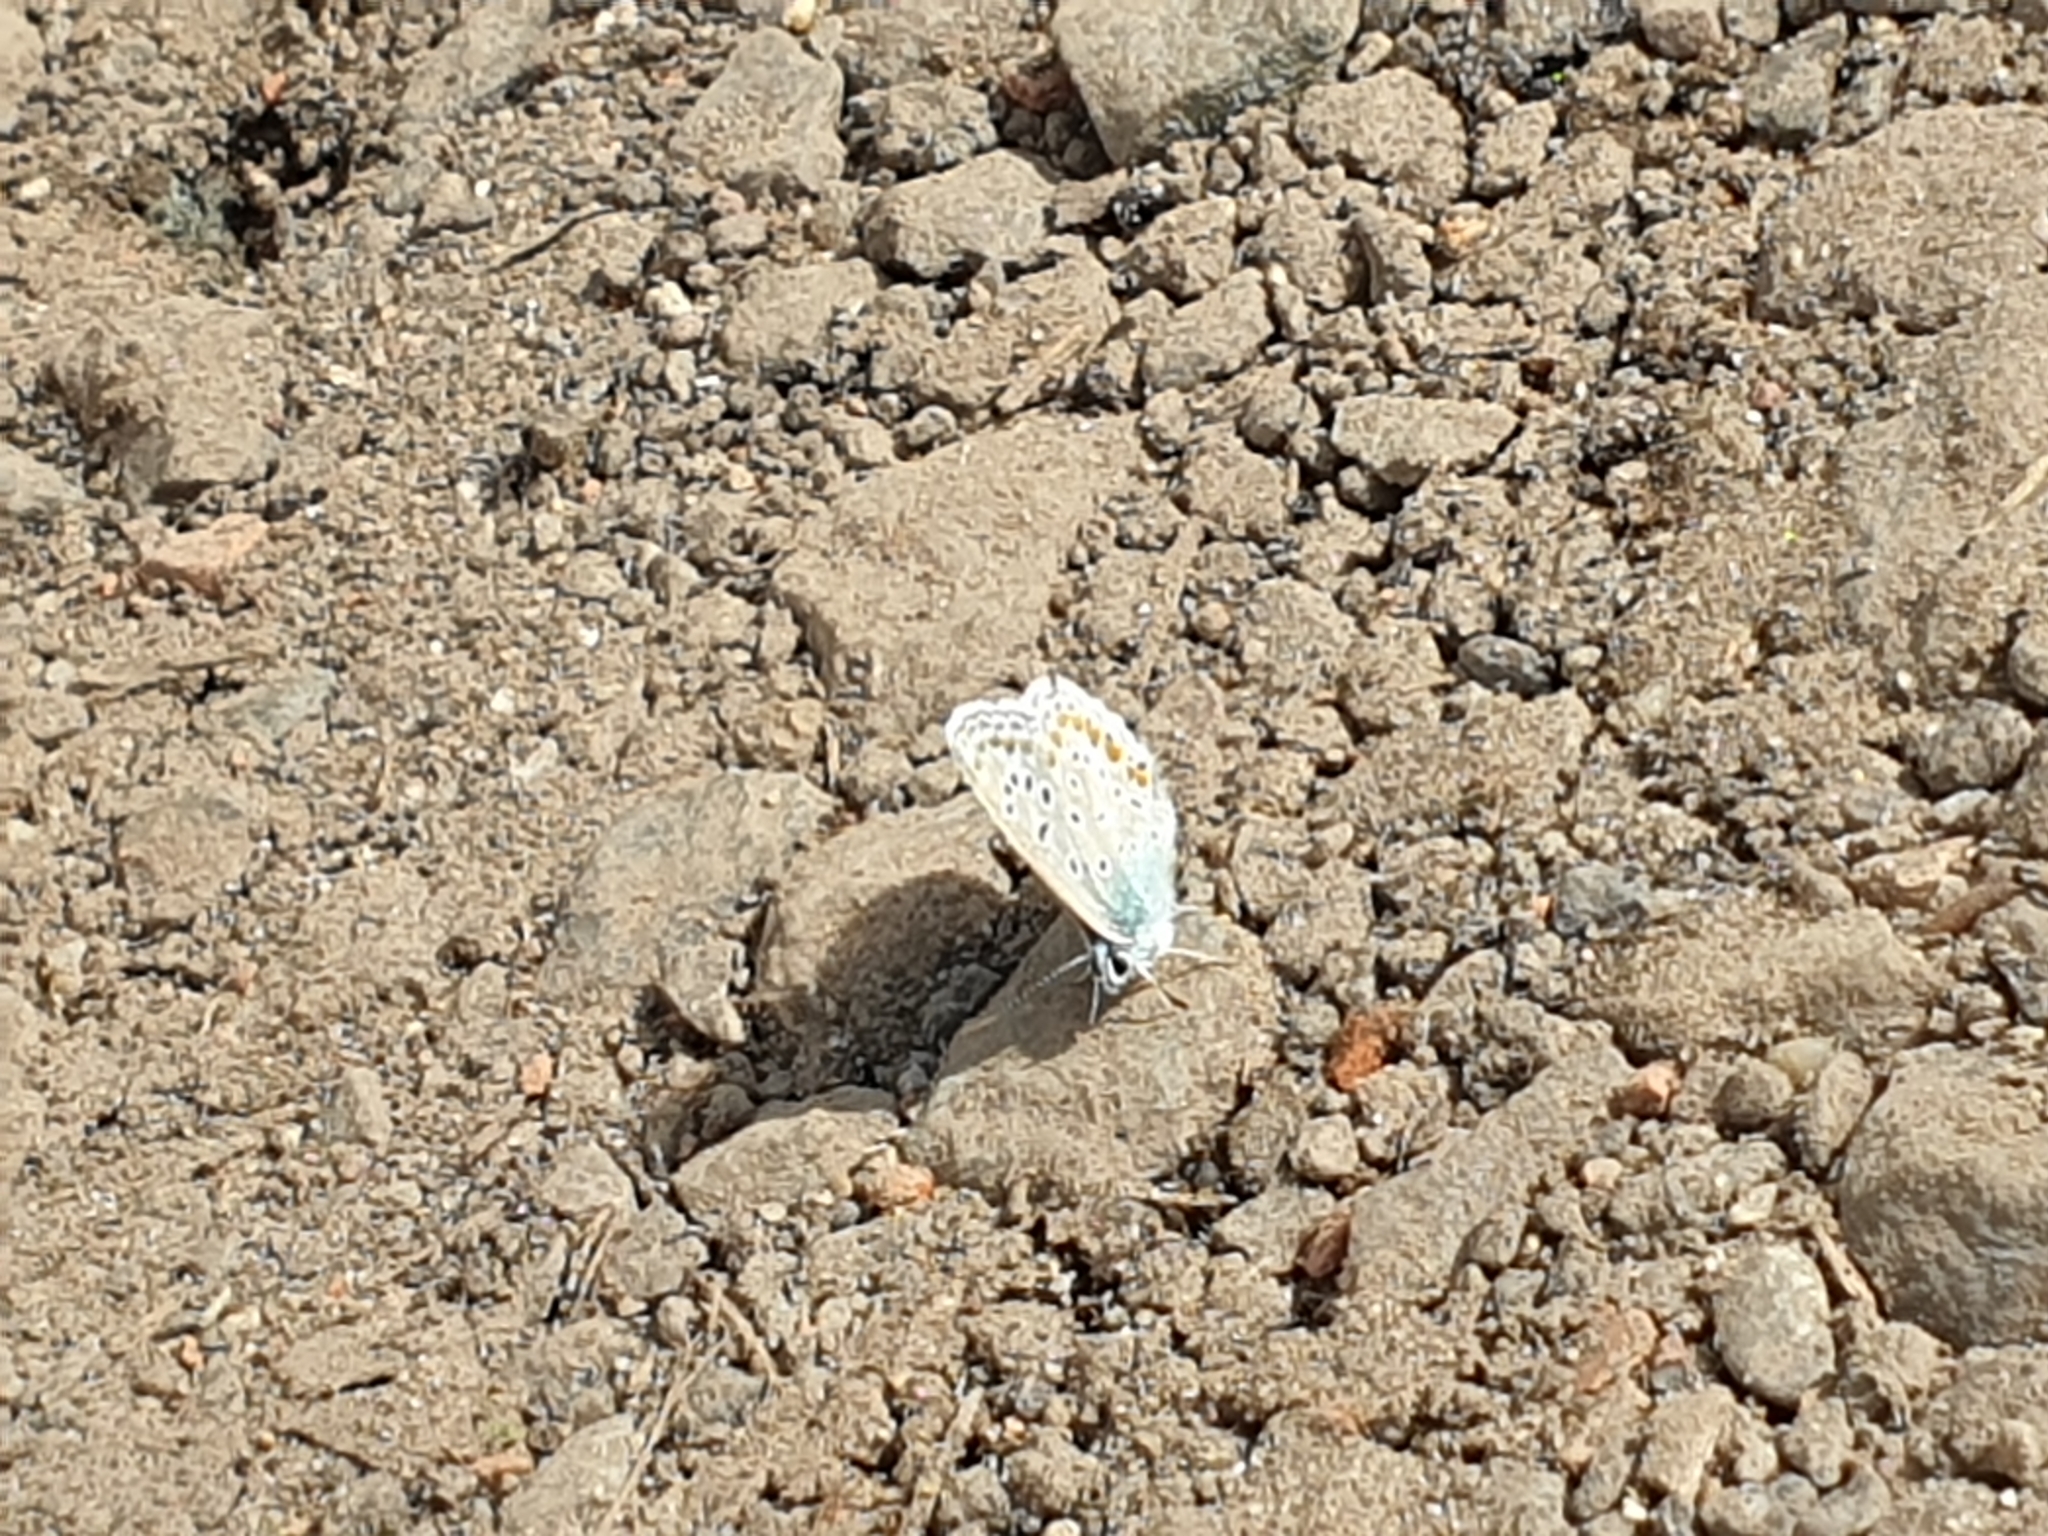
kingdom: Animalia
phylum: Arthropoda
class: Insecta
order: Lepidoptera
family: Lycaenidae
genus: Polyommatus
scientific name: Polyommatus icarus
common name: Common blue
